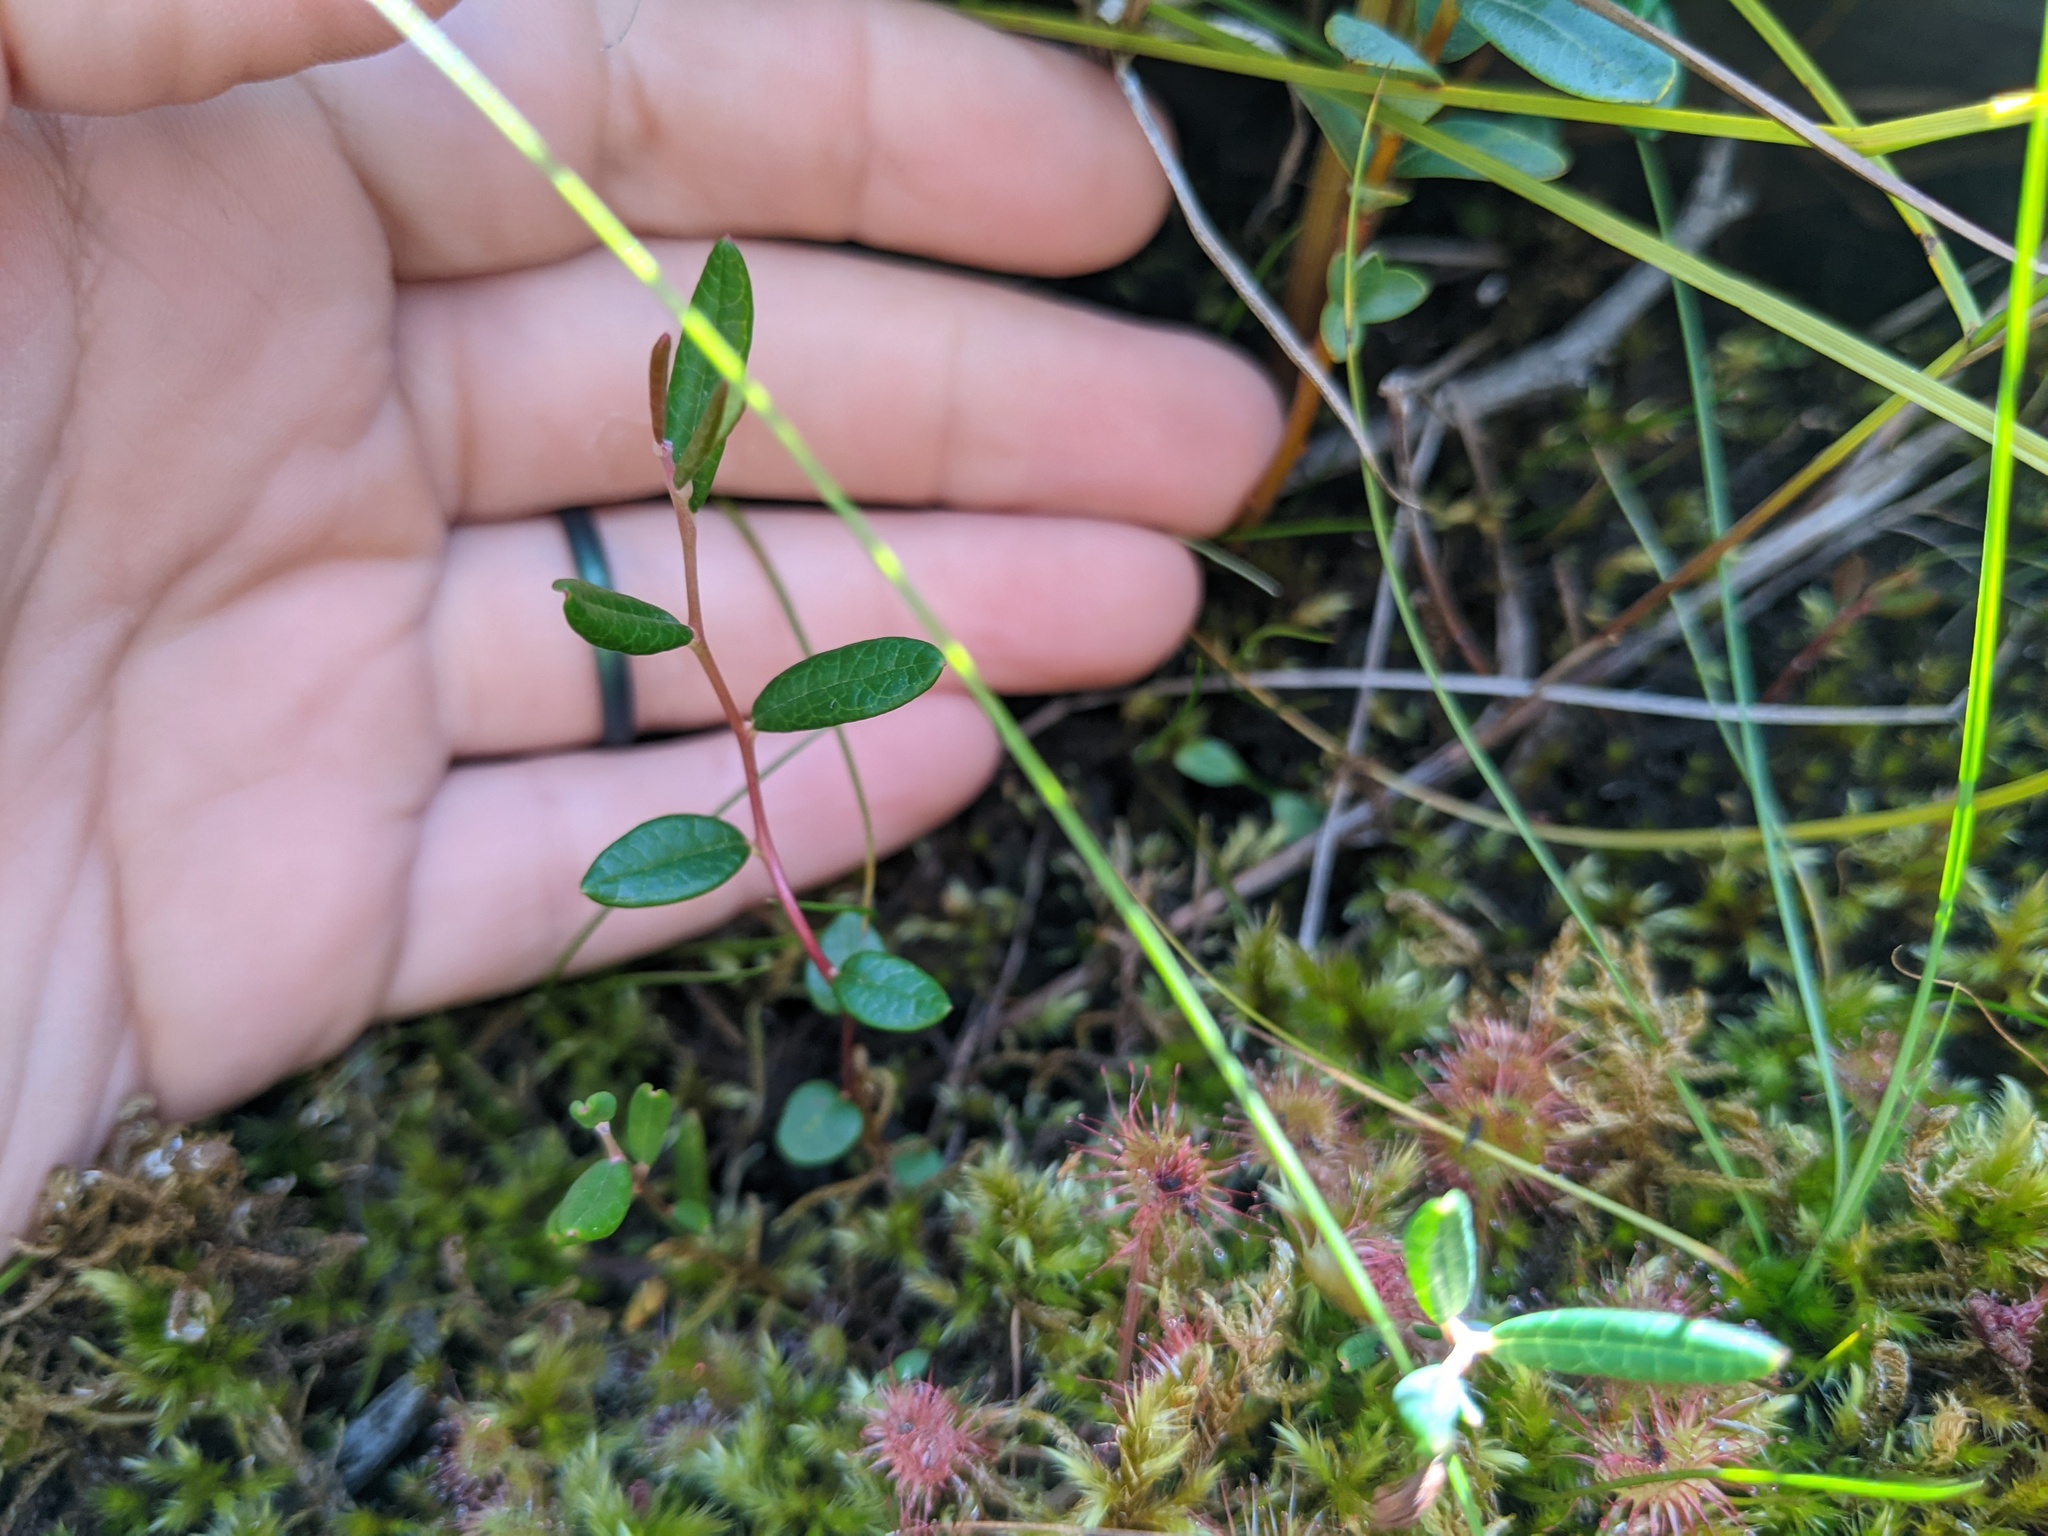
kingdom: Plantae
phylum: Tracheophyta
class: Magnoliopsida
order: Ericales
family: Ericaceae
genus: Vaccinium
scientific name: Vaccinium oxycoccos
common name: Cranberry
